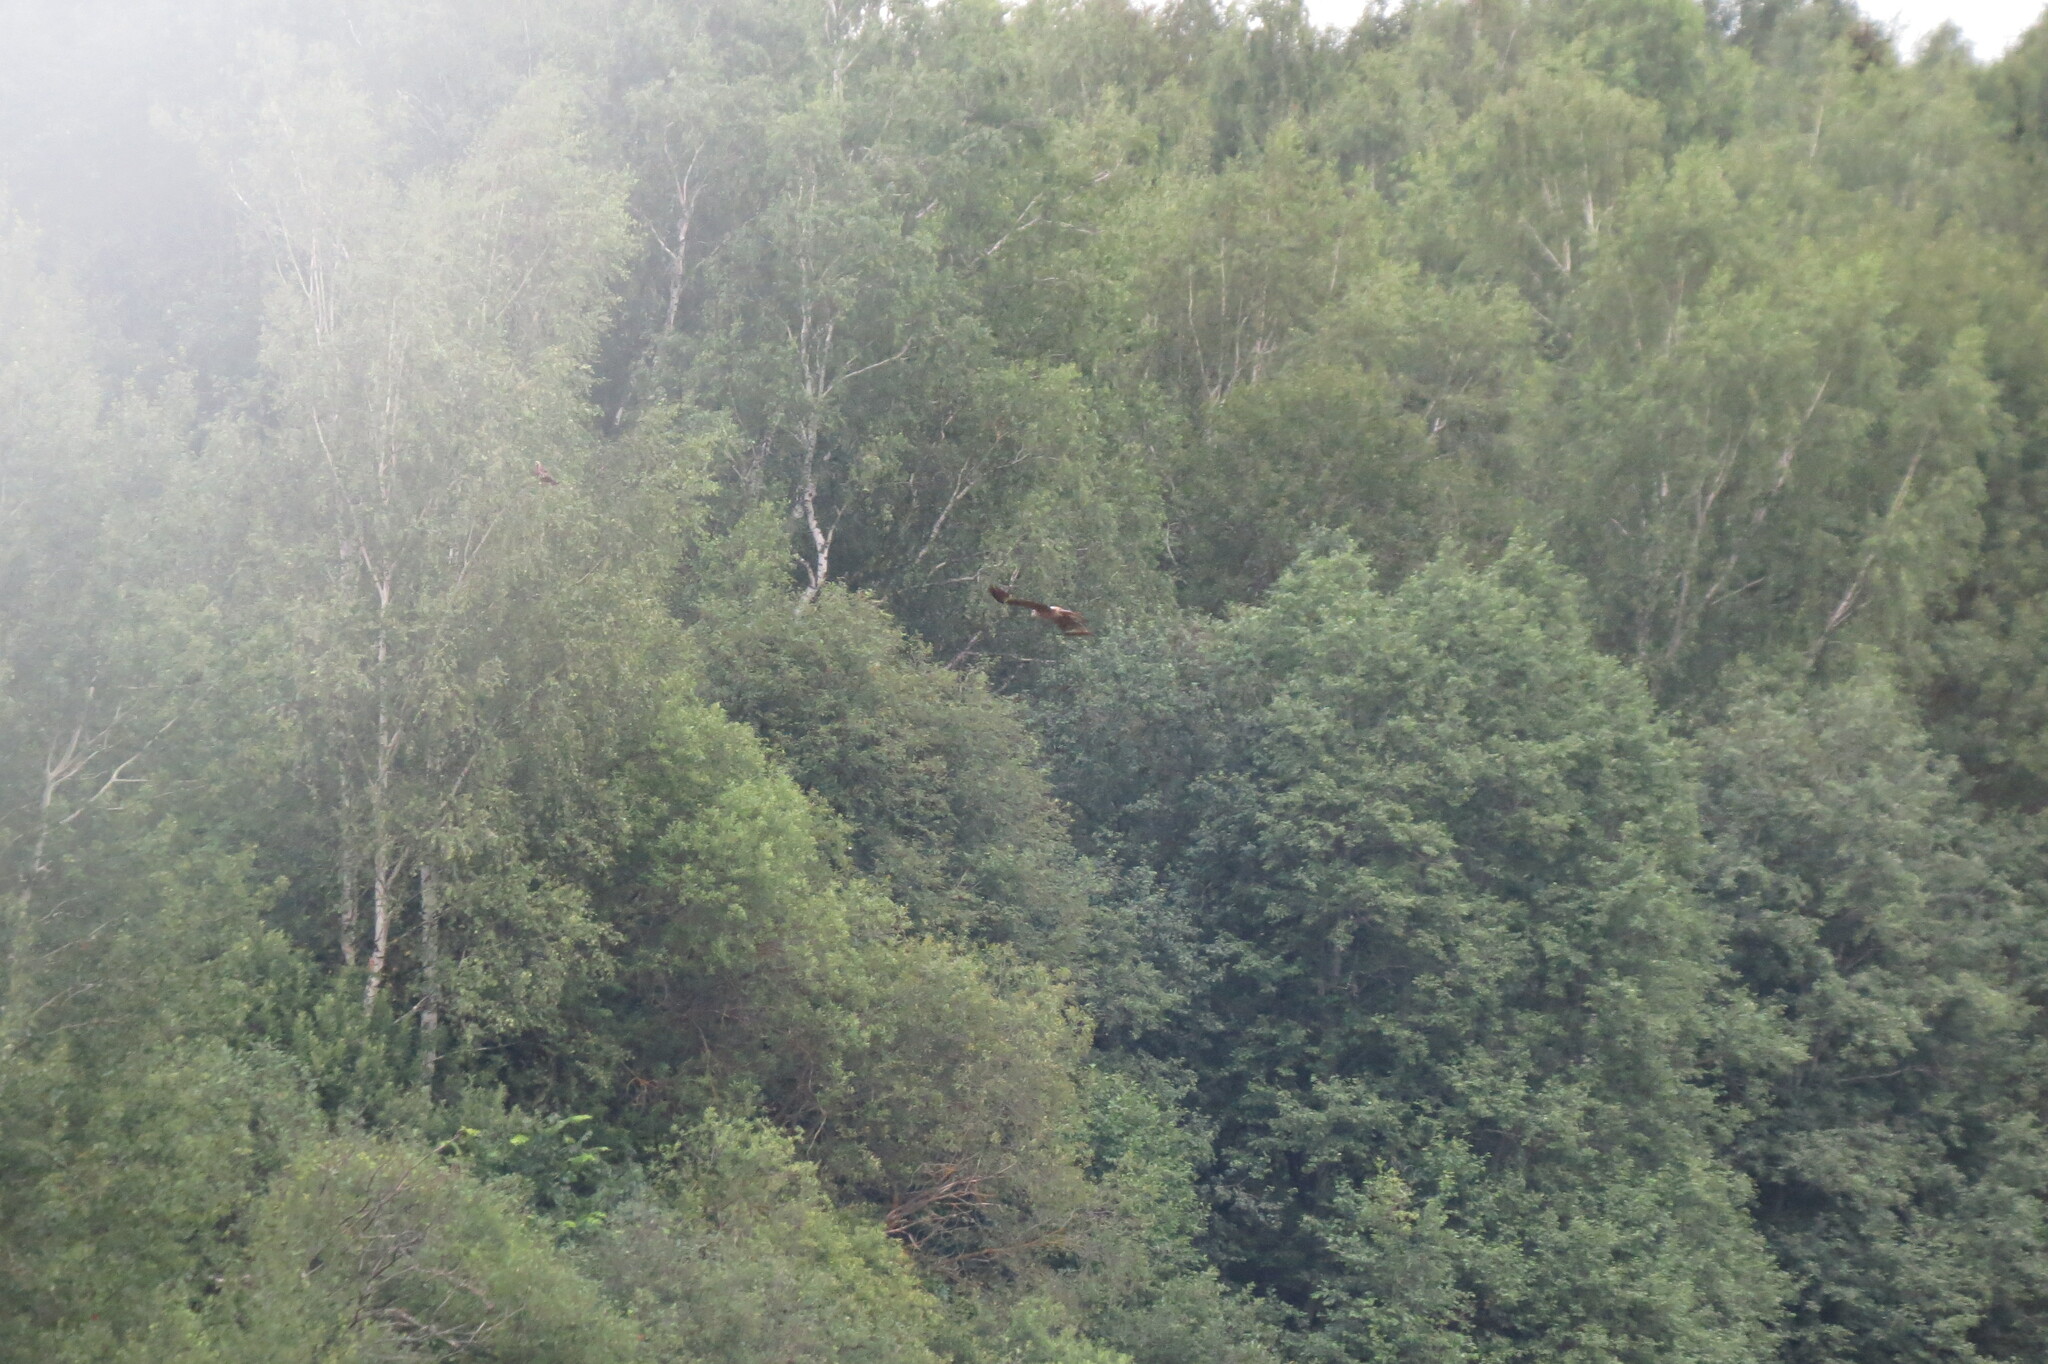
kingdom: Animalia
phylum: Chordata
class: Aves
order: Accipitriformes
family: Accipitridae
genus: Milvus
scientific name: Milvus migrans
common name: Black kite
